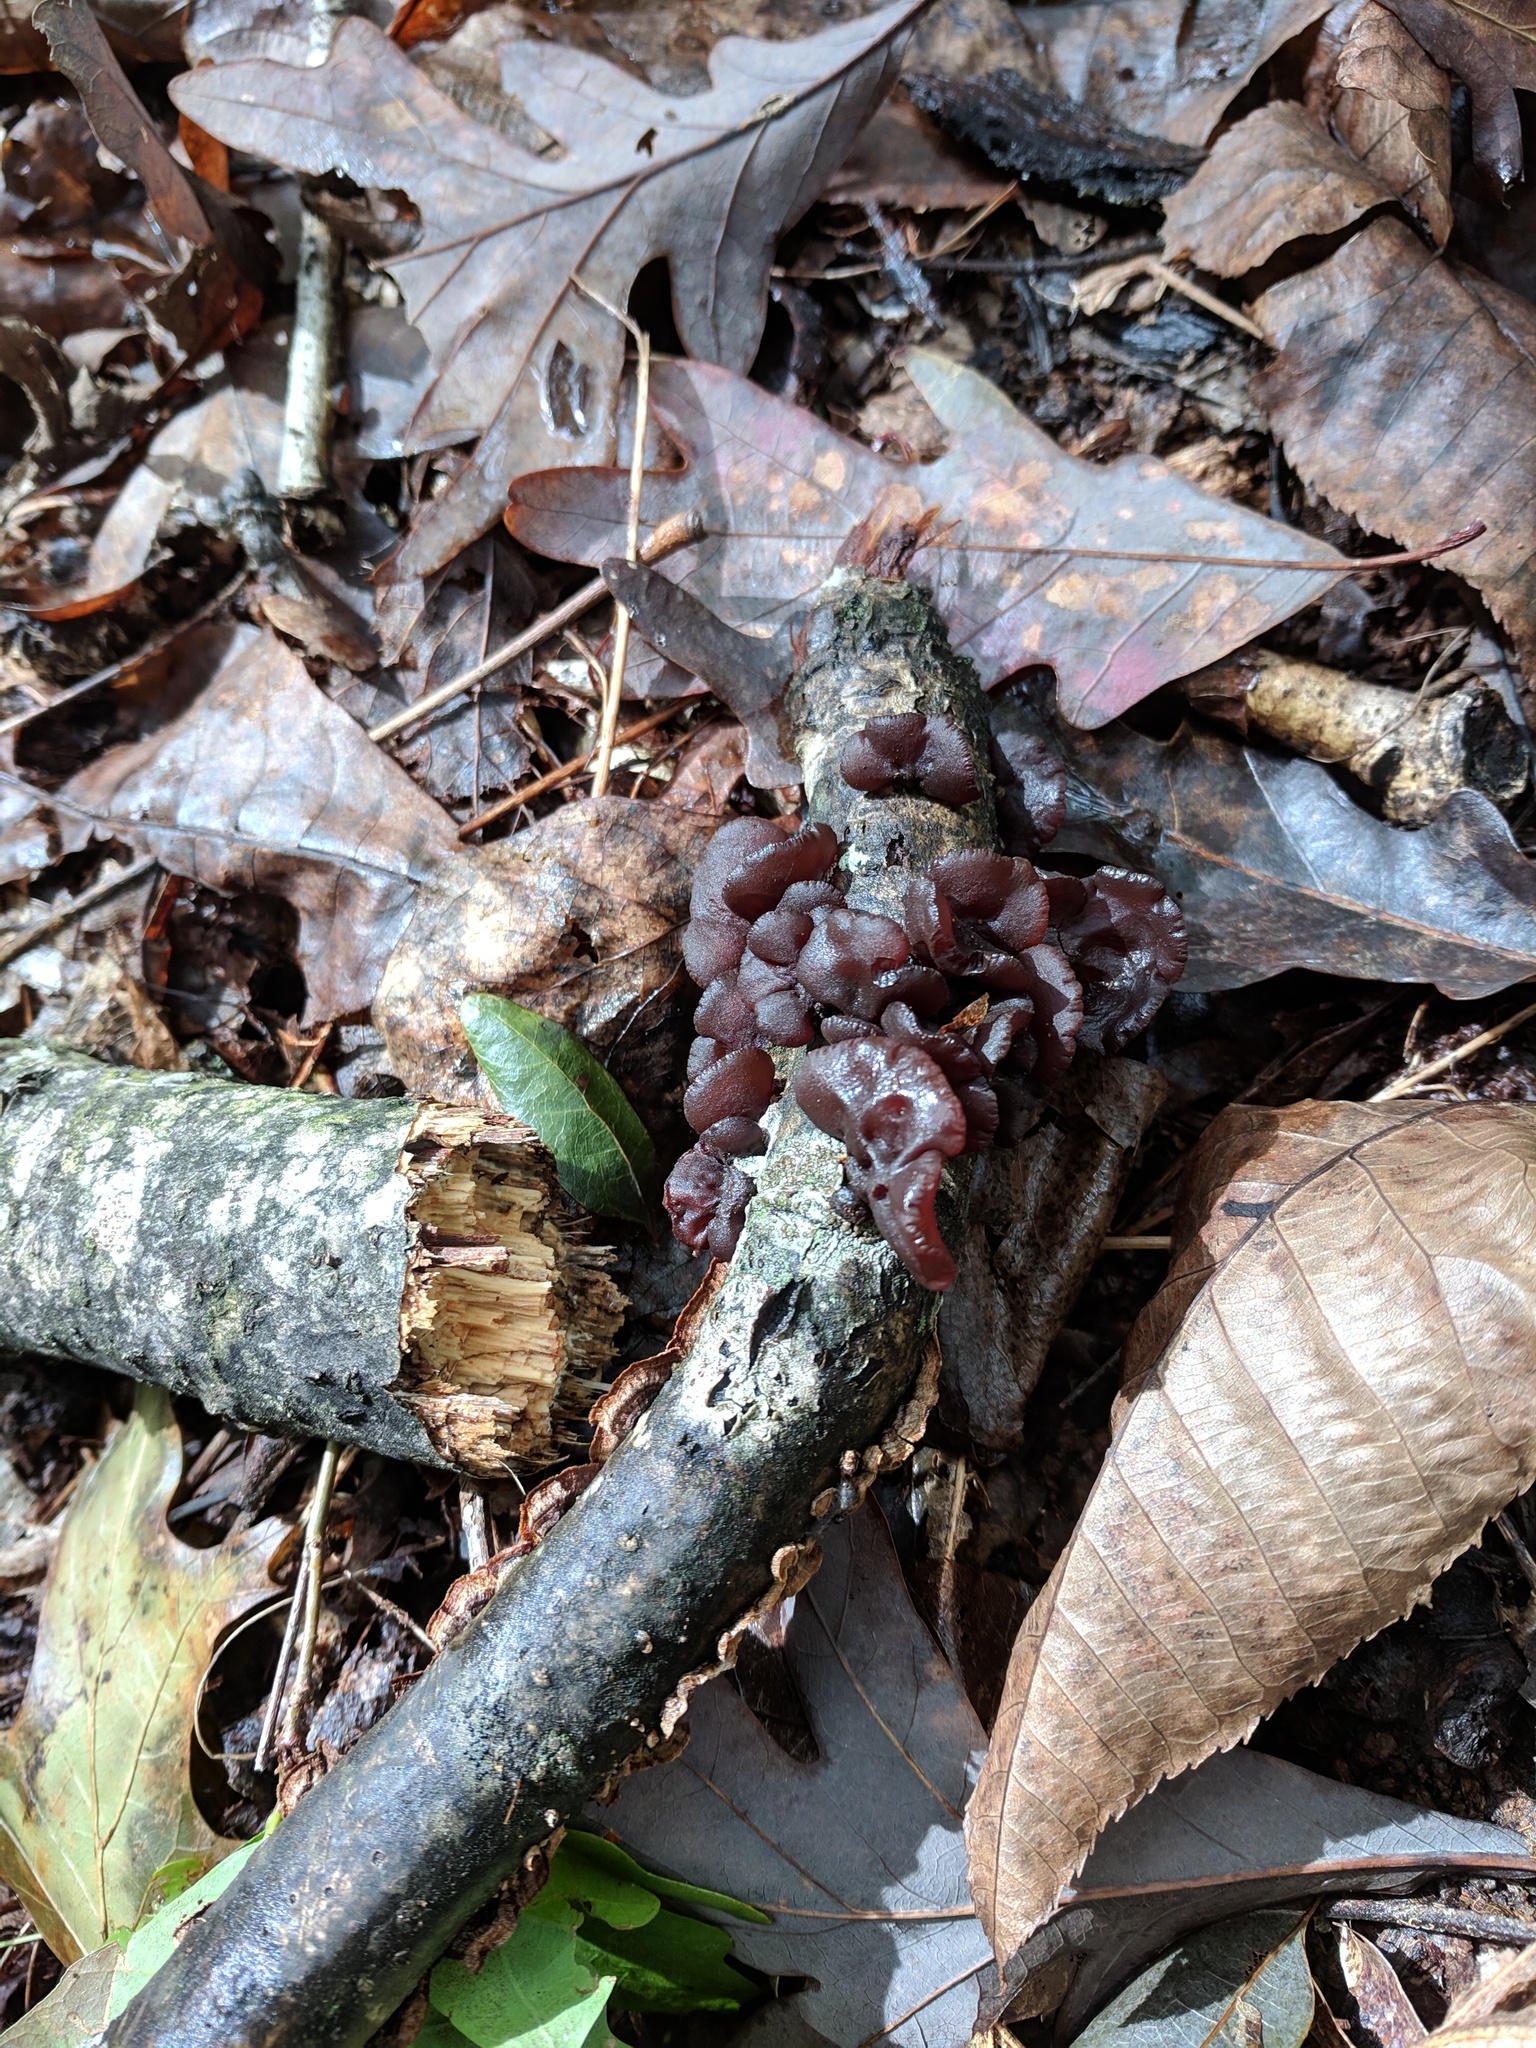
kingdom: Fungi
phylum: Basidiomycota
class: Agaricomycetes
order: Auriculariales
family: Auriculariaceae
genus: Exidia
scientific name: Exidia
